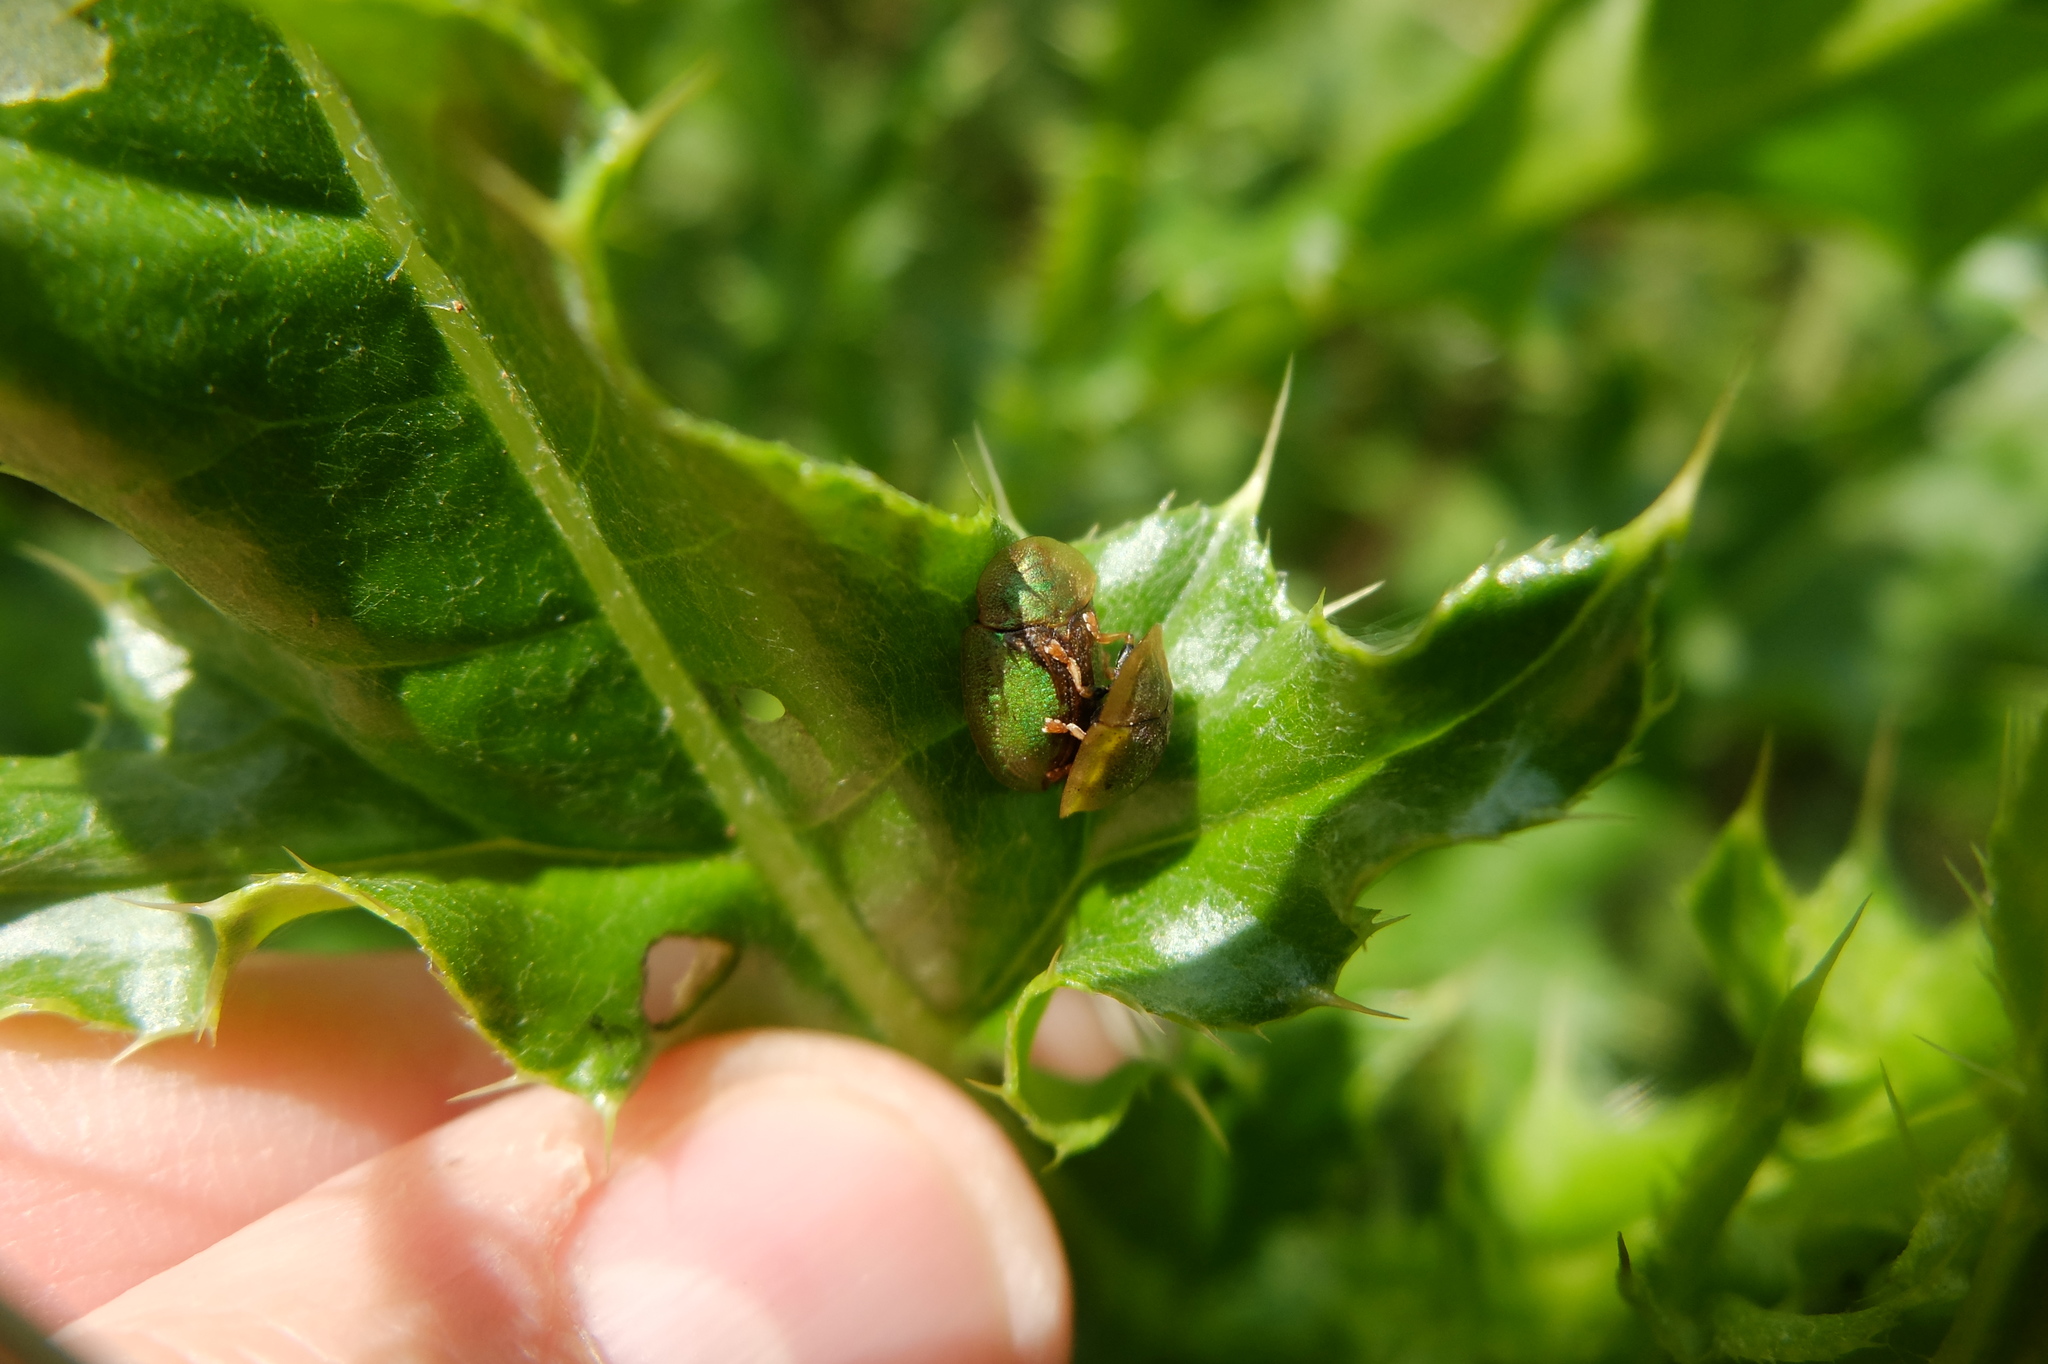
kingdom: Animalia
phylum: Arthropoda
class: Insecta
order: Coleoptera
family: Chrysomelidae
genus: Cassida
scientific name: Cassida vibex
